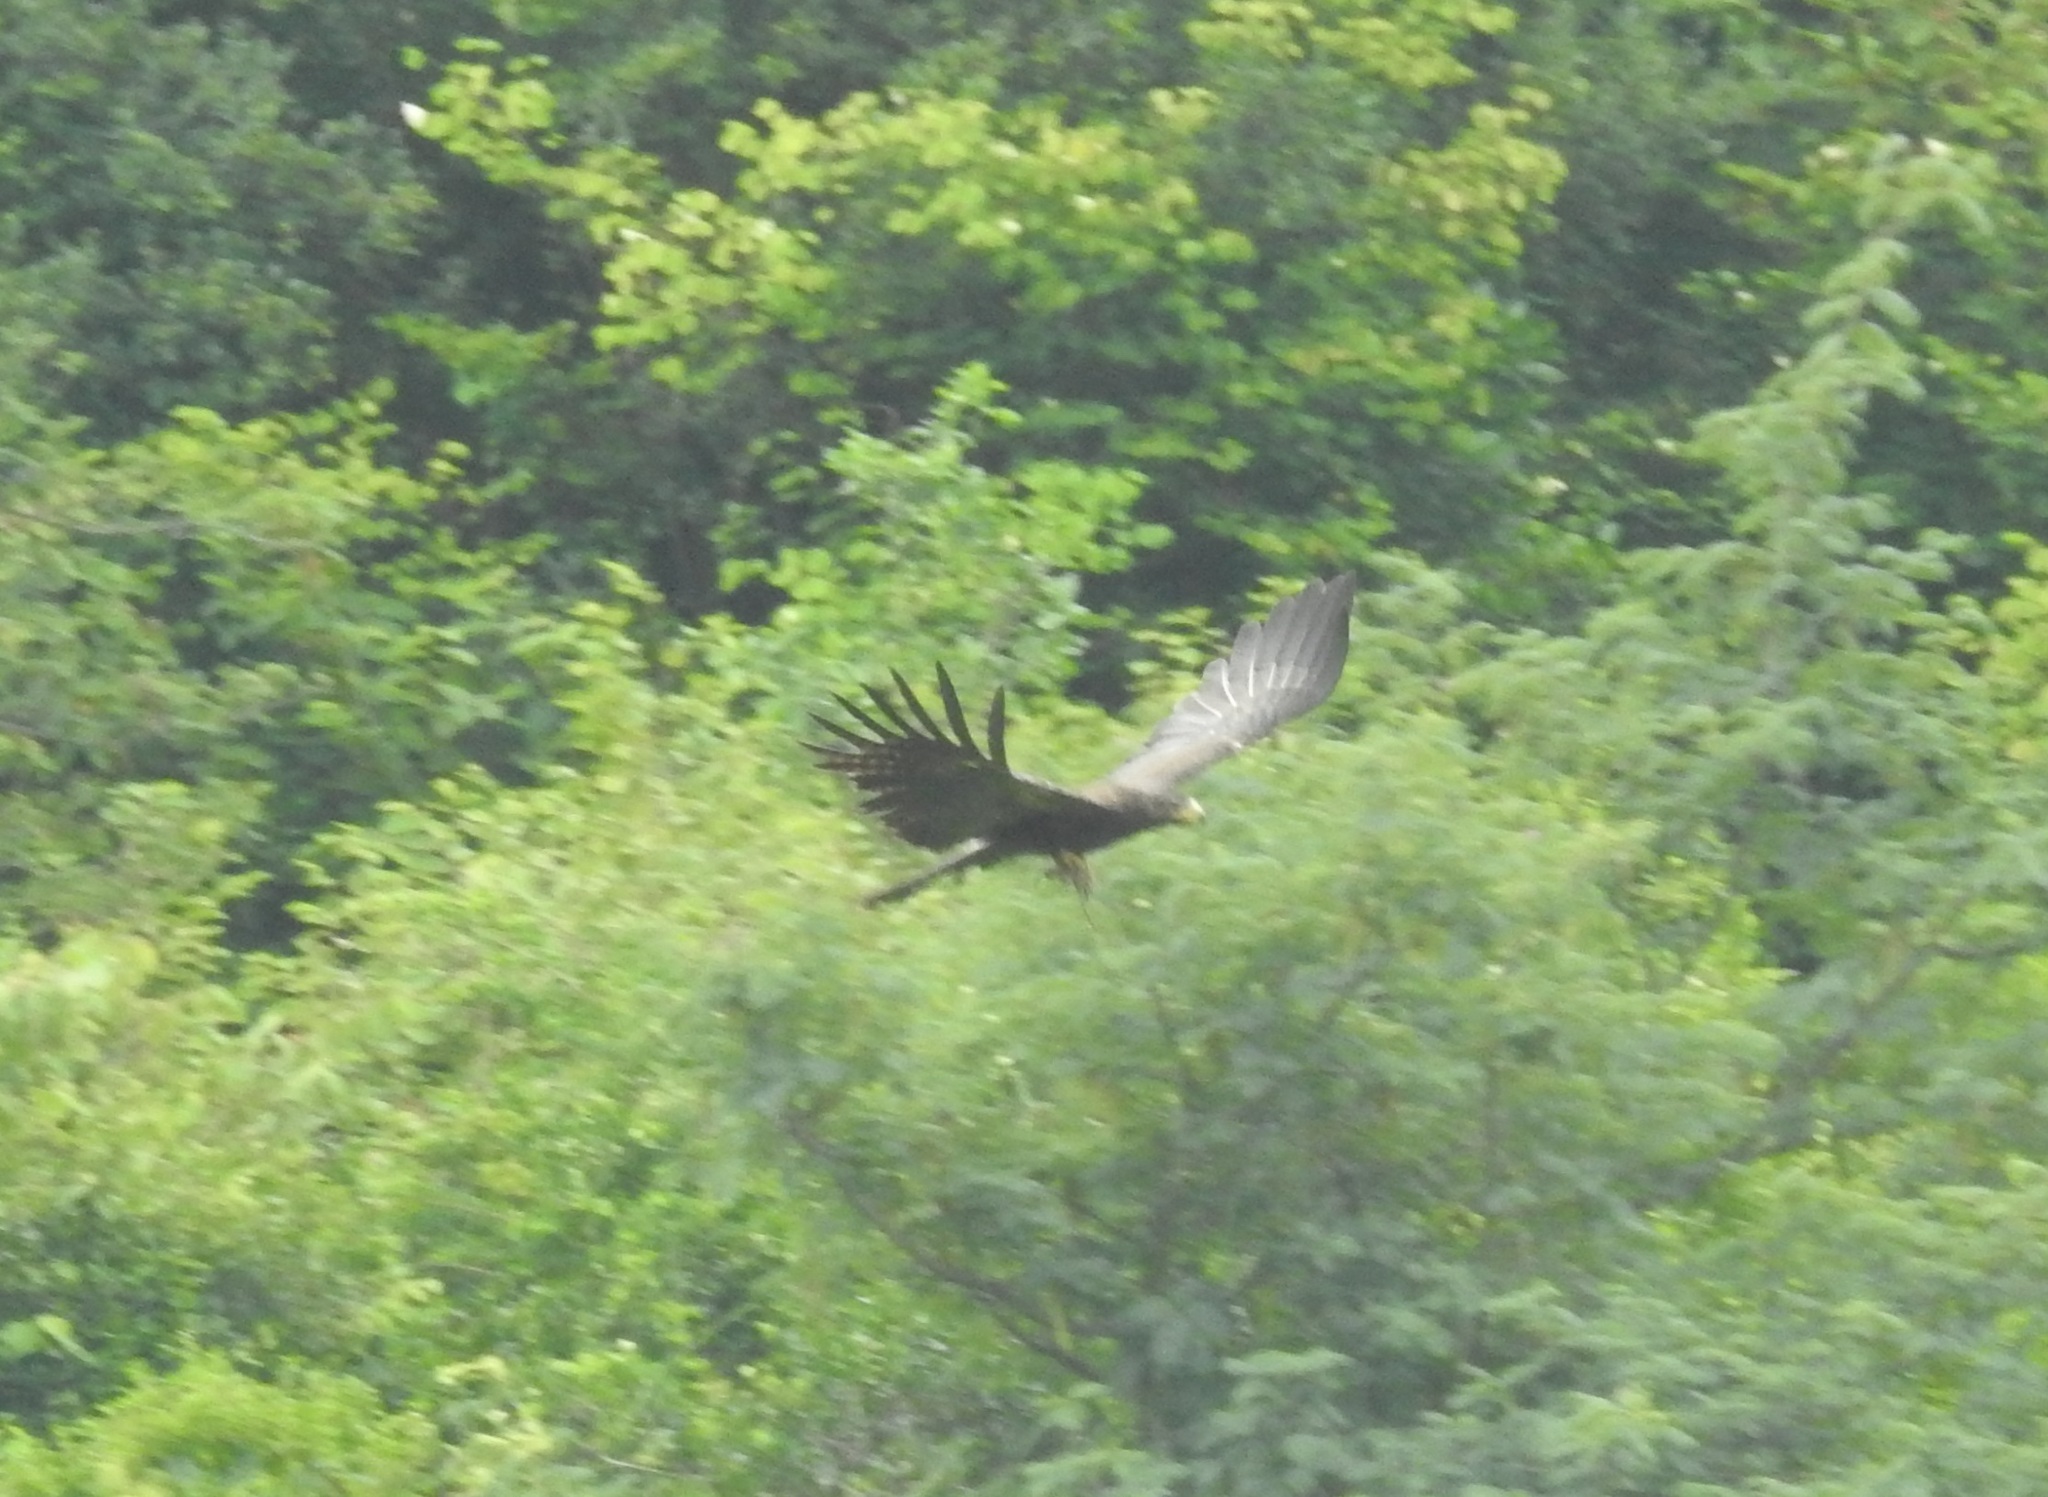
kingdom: Animalia
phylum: Chordata
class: Aves
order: Accipitriformes
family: Accipitridae
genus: Ictinaetus
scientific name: Ictinaetus malayensis
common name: Black eagle
